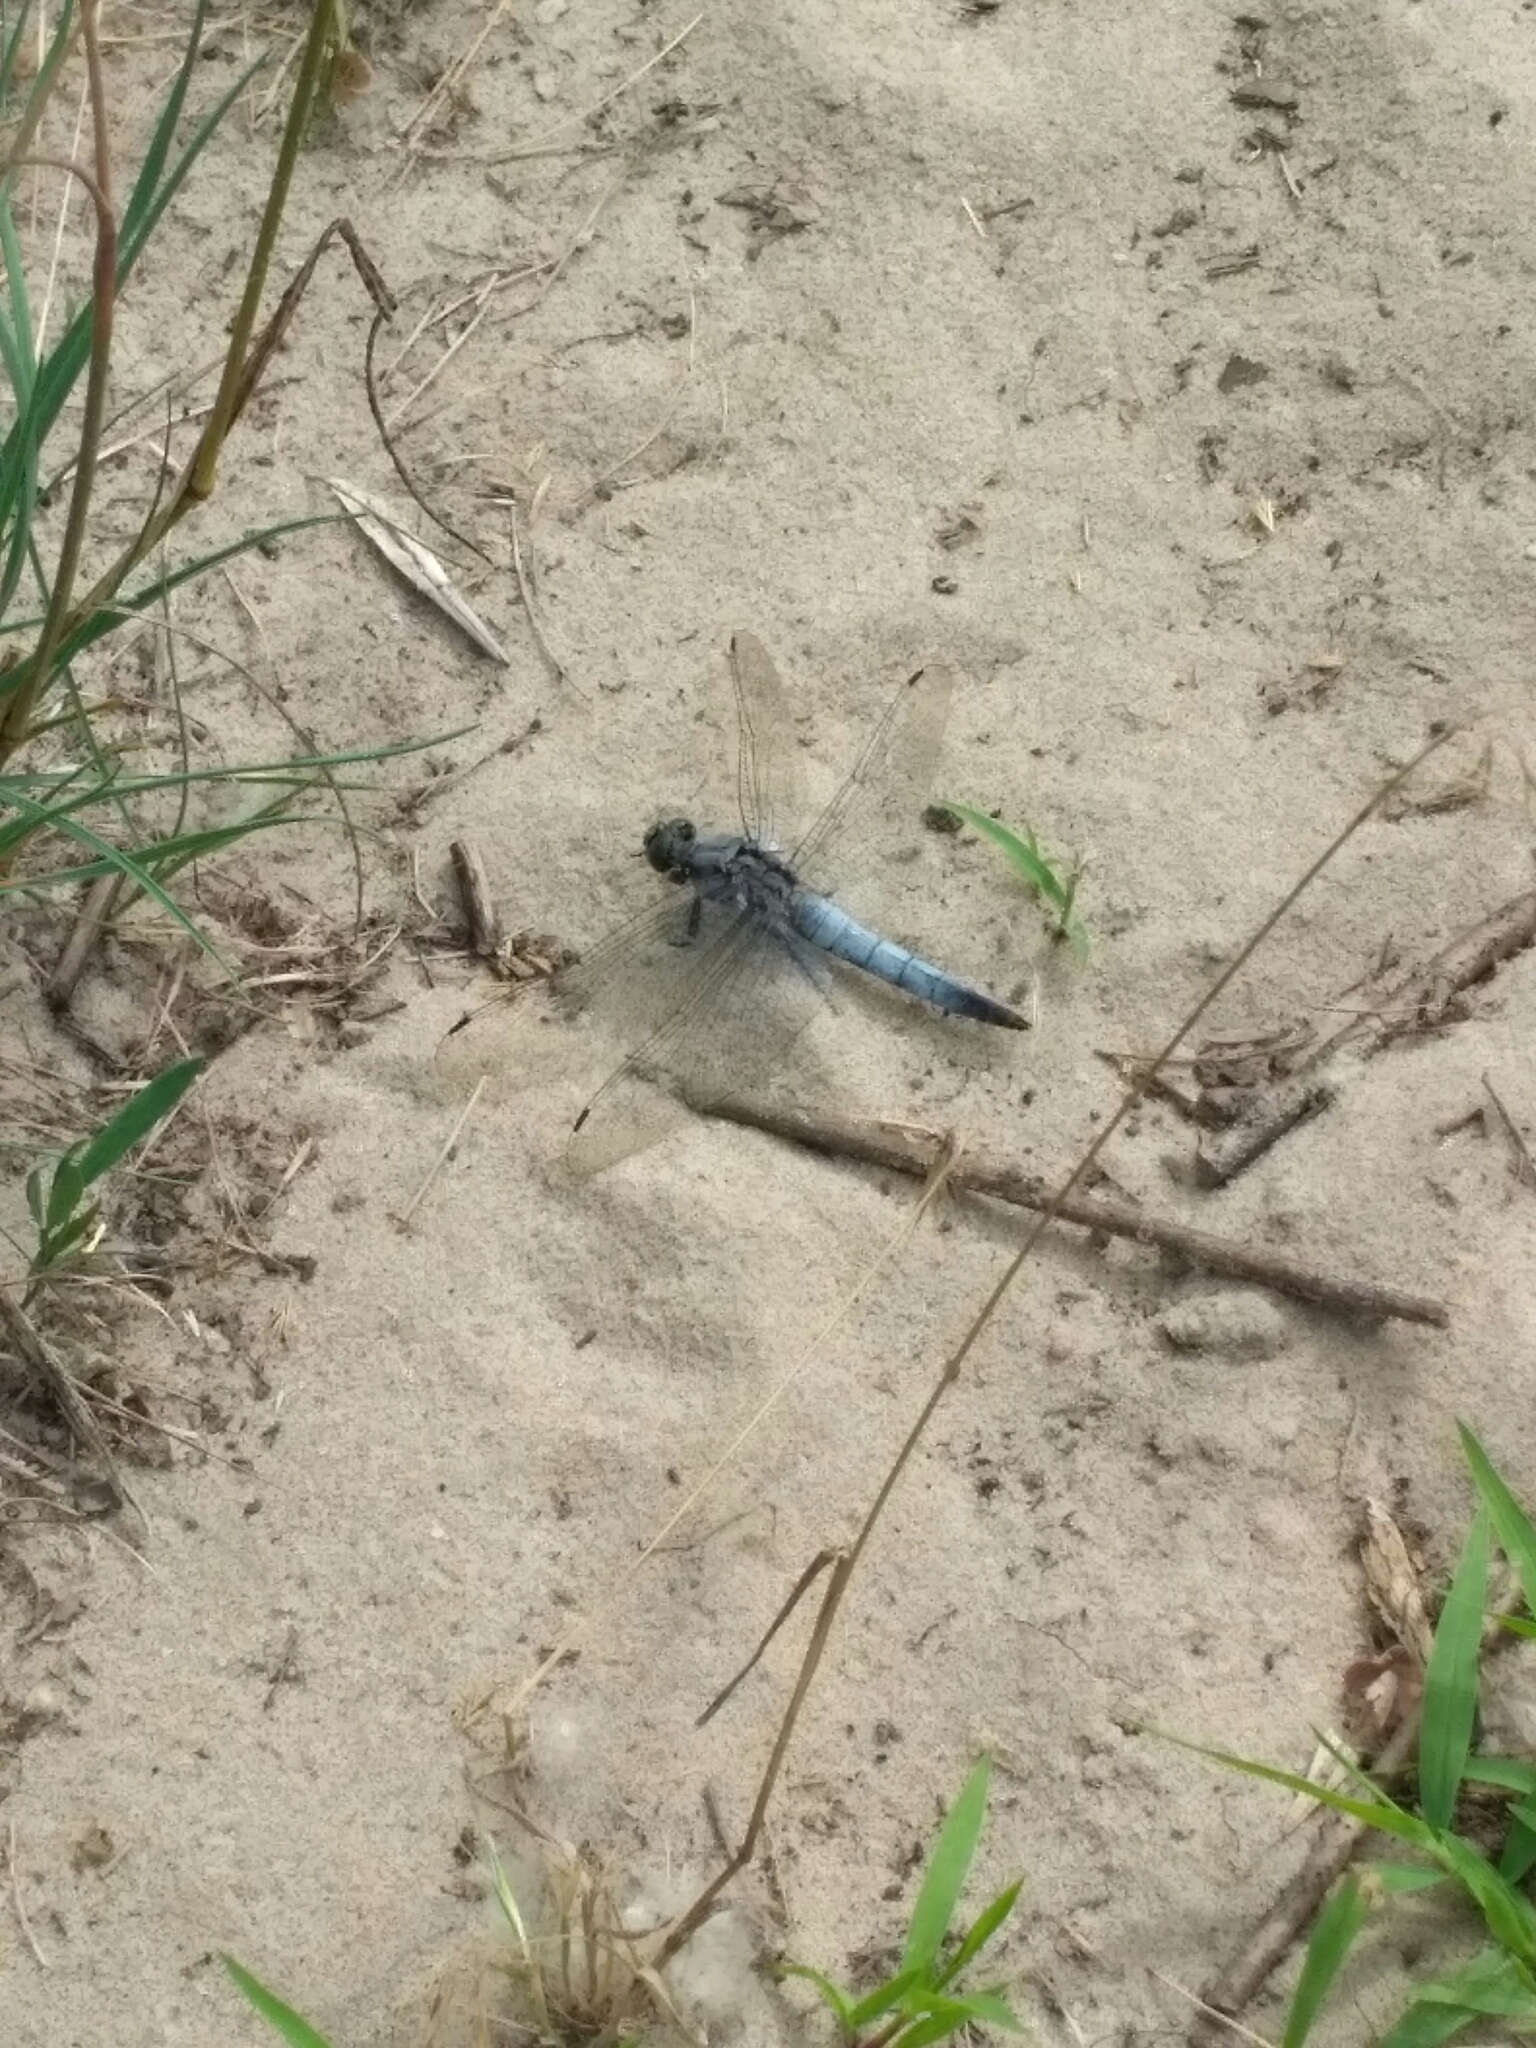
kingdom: Animalia
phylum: Arthropoda
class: Insecta
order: Odonata
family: Libellulidae
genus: Orthetrum
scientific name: Orthetrum cancellatum
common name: Black-tailed skimmer
